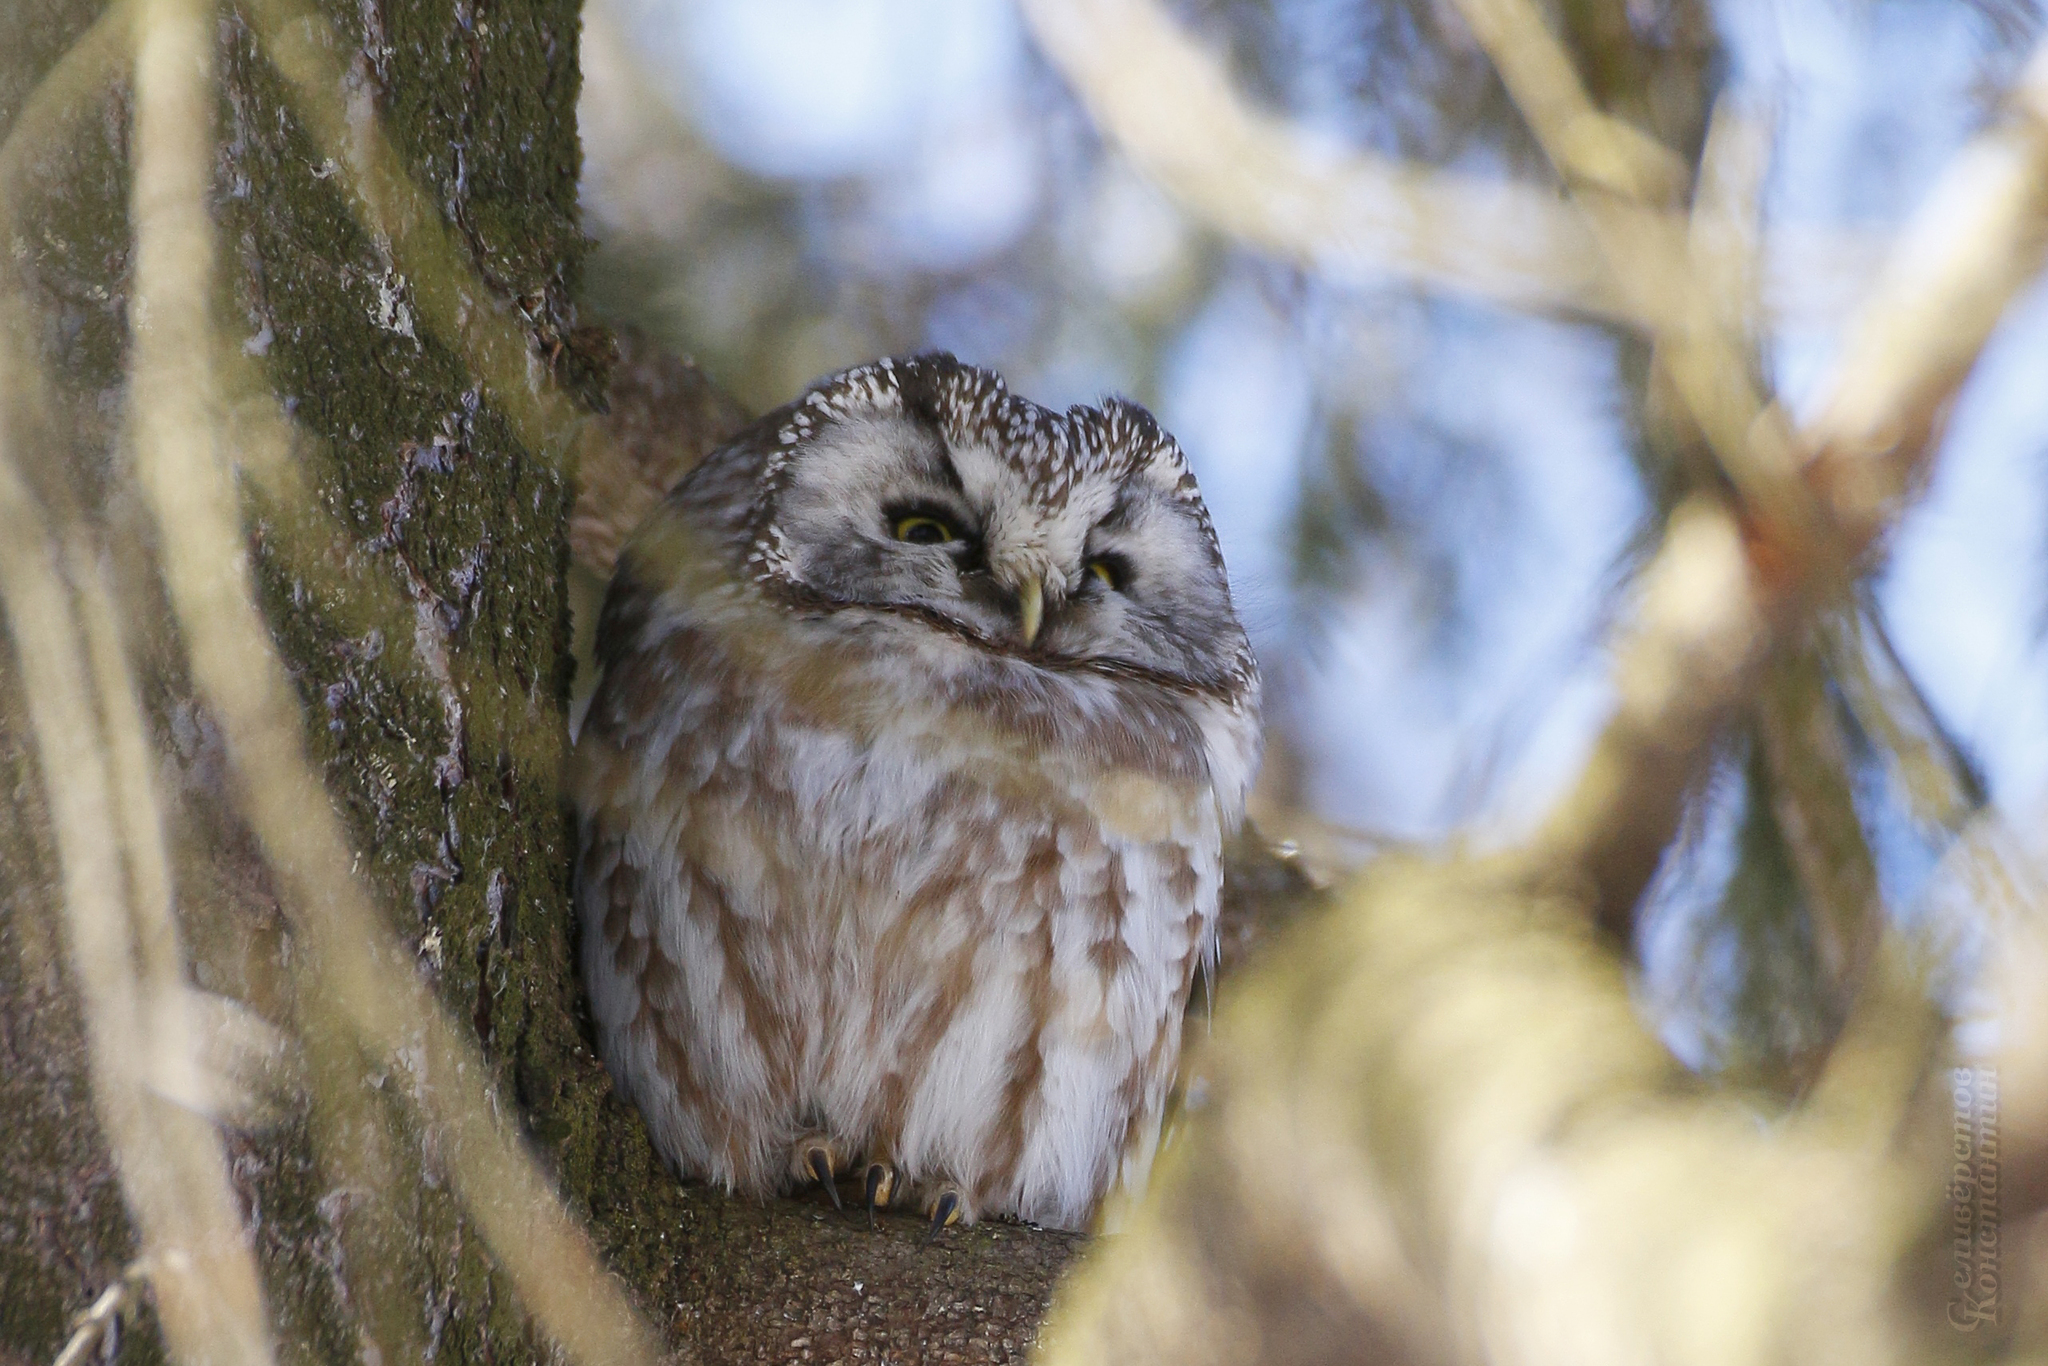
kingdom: Animalia
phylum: Chordata
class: Aves
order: Strigiformes
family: Strigidae
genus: Aegolius
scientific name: Aegolius funereus
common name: Boreal owl
